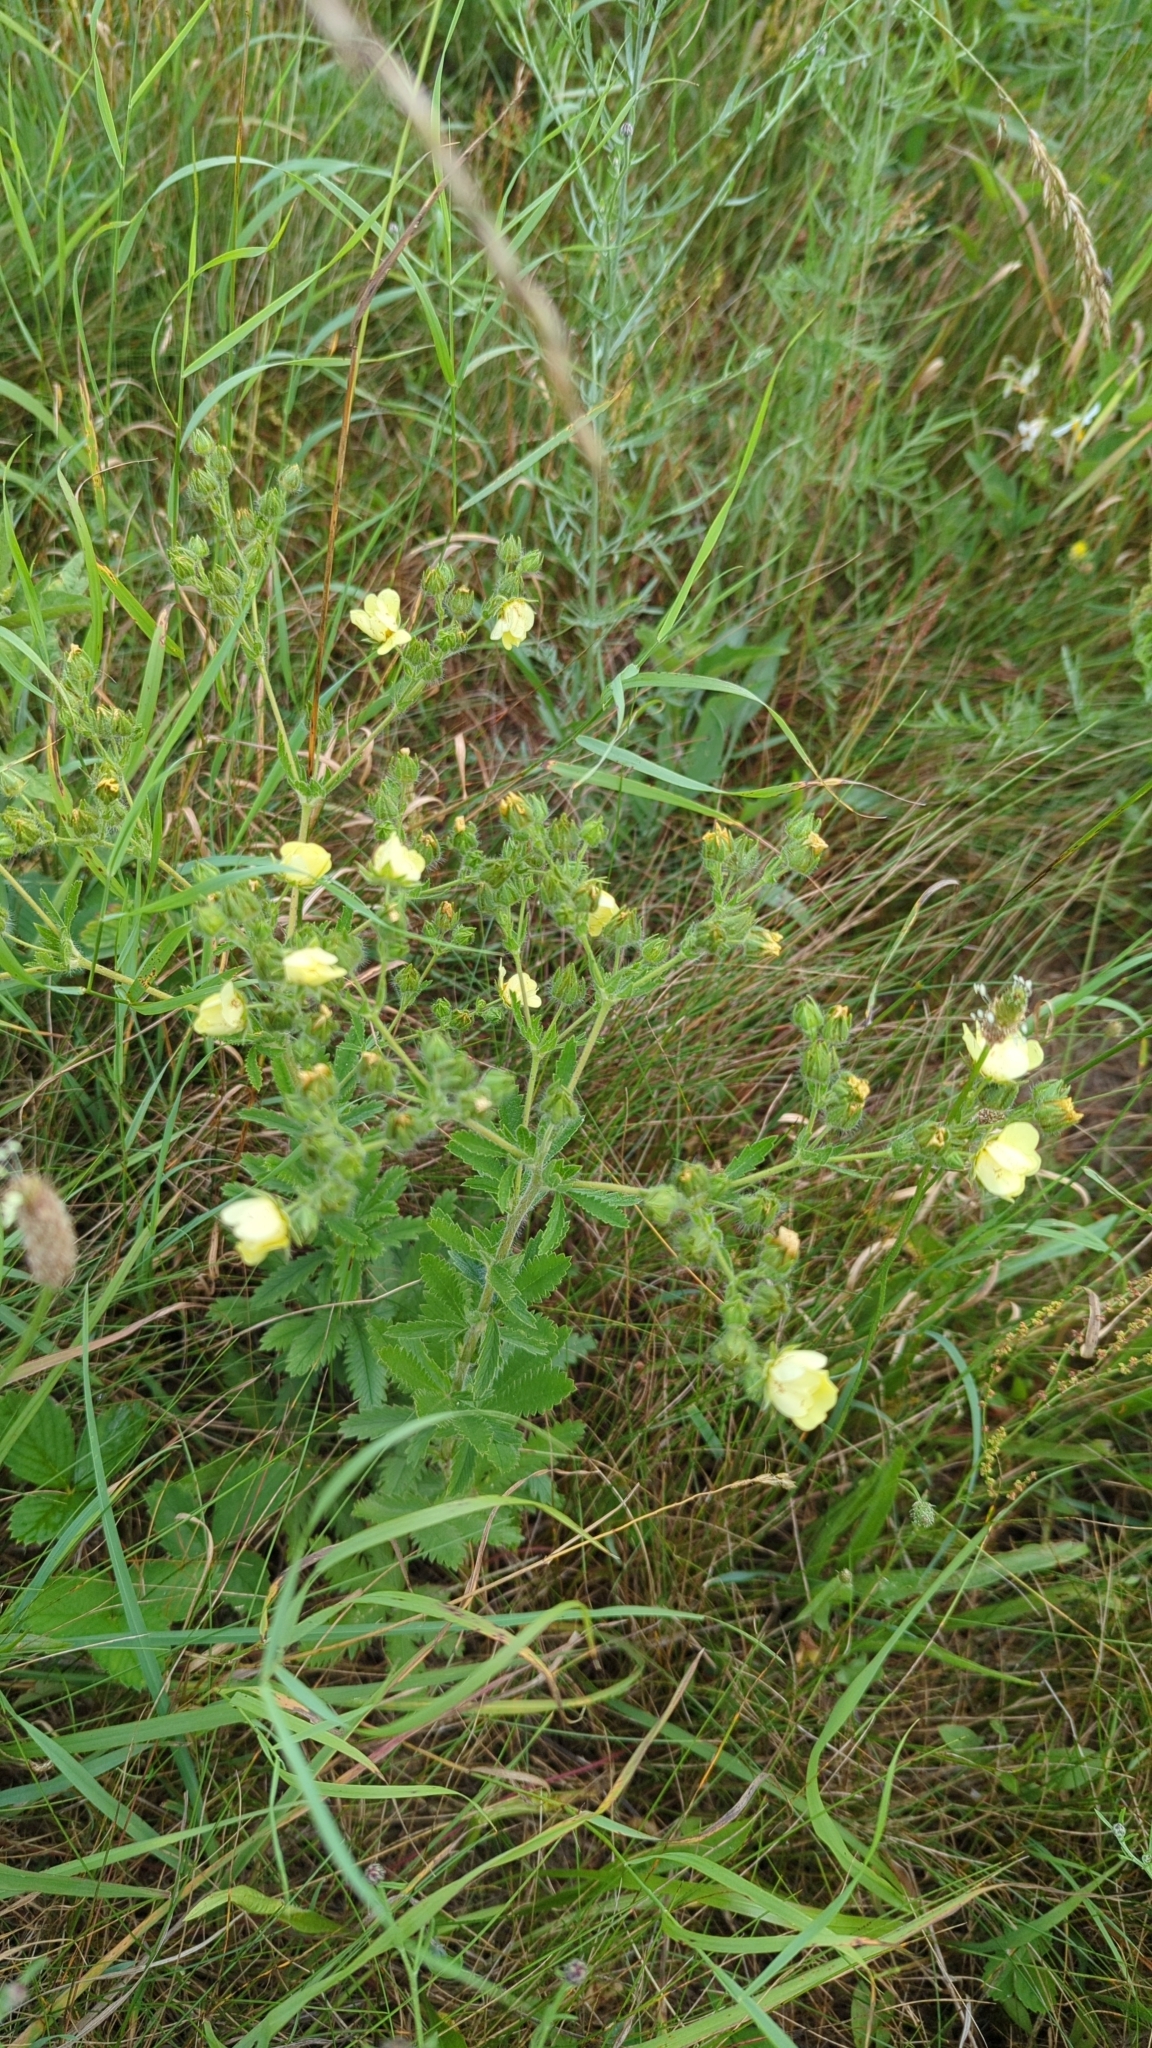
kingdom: Plantae
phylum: Tracheophyta
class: Magnoliopsida
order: Rosales
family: Rosaceae
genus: Potentilla
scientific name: Potentilla recta
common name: Sulphur cinquefoil
